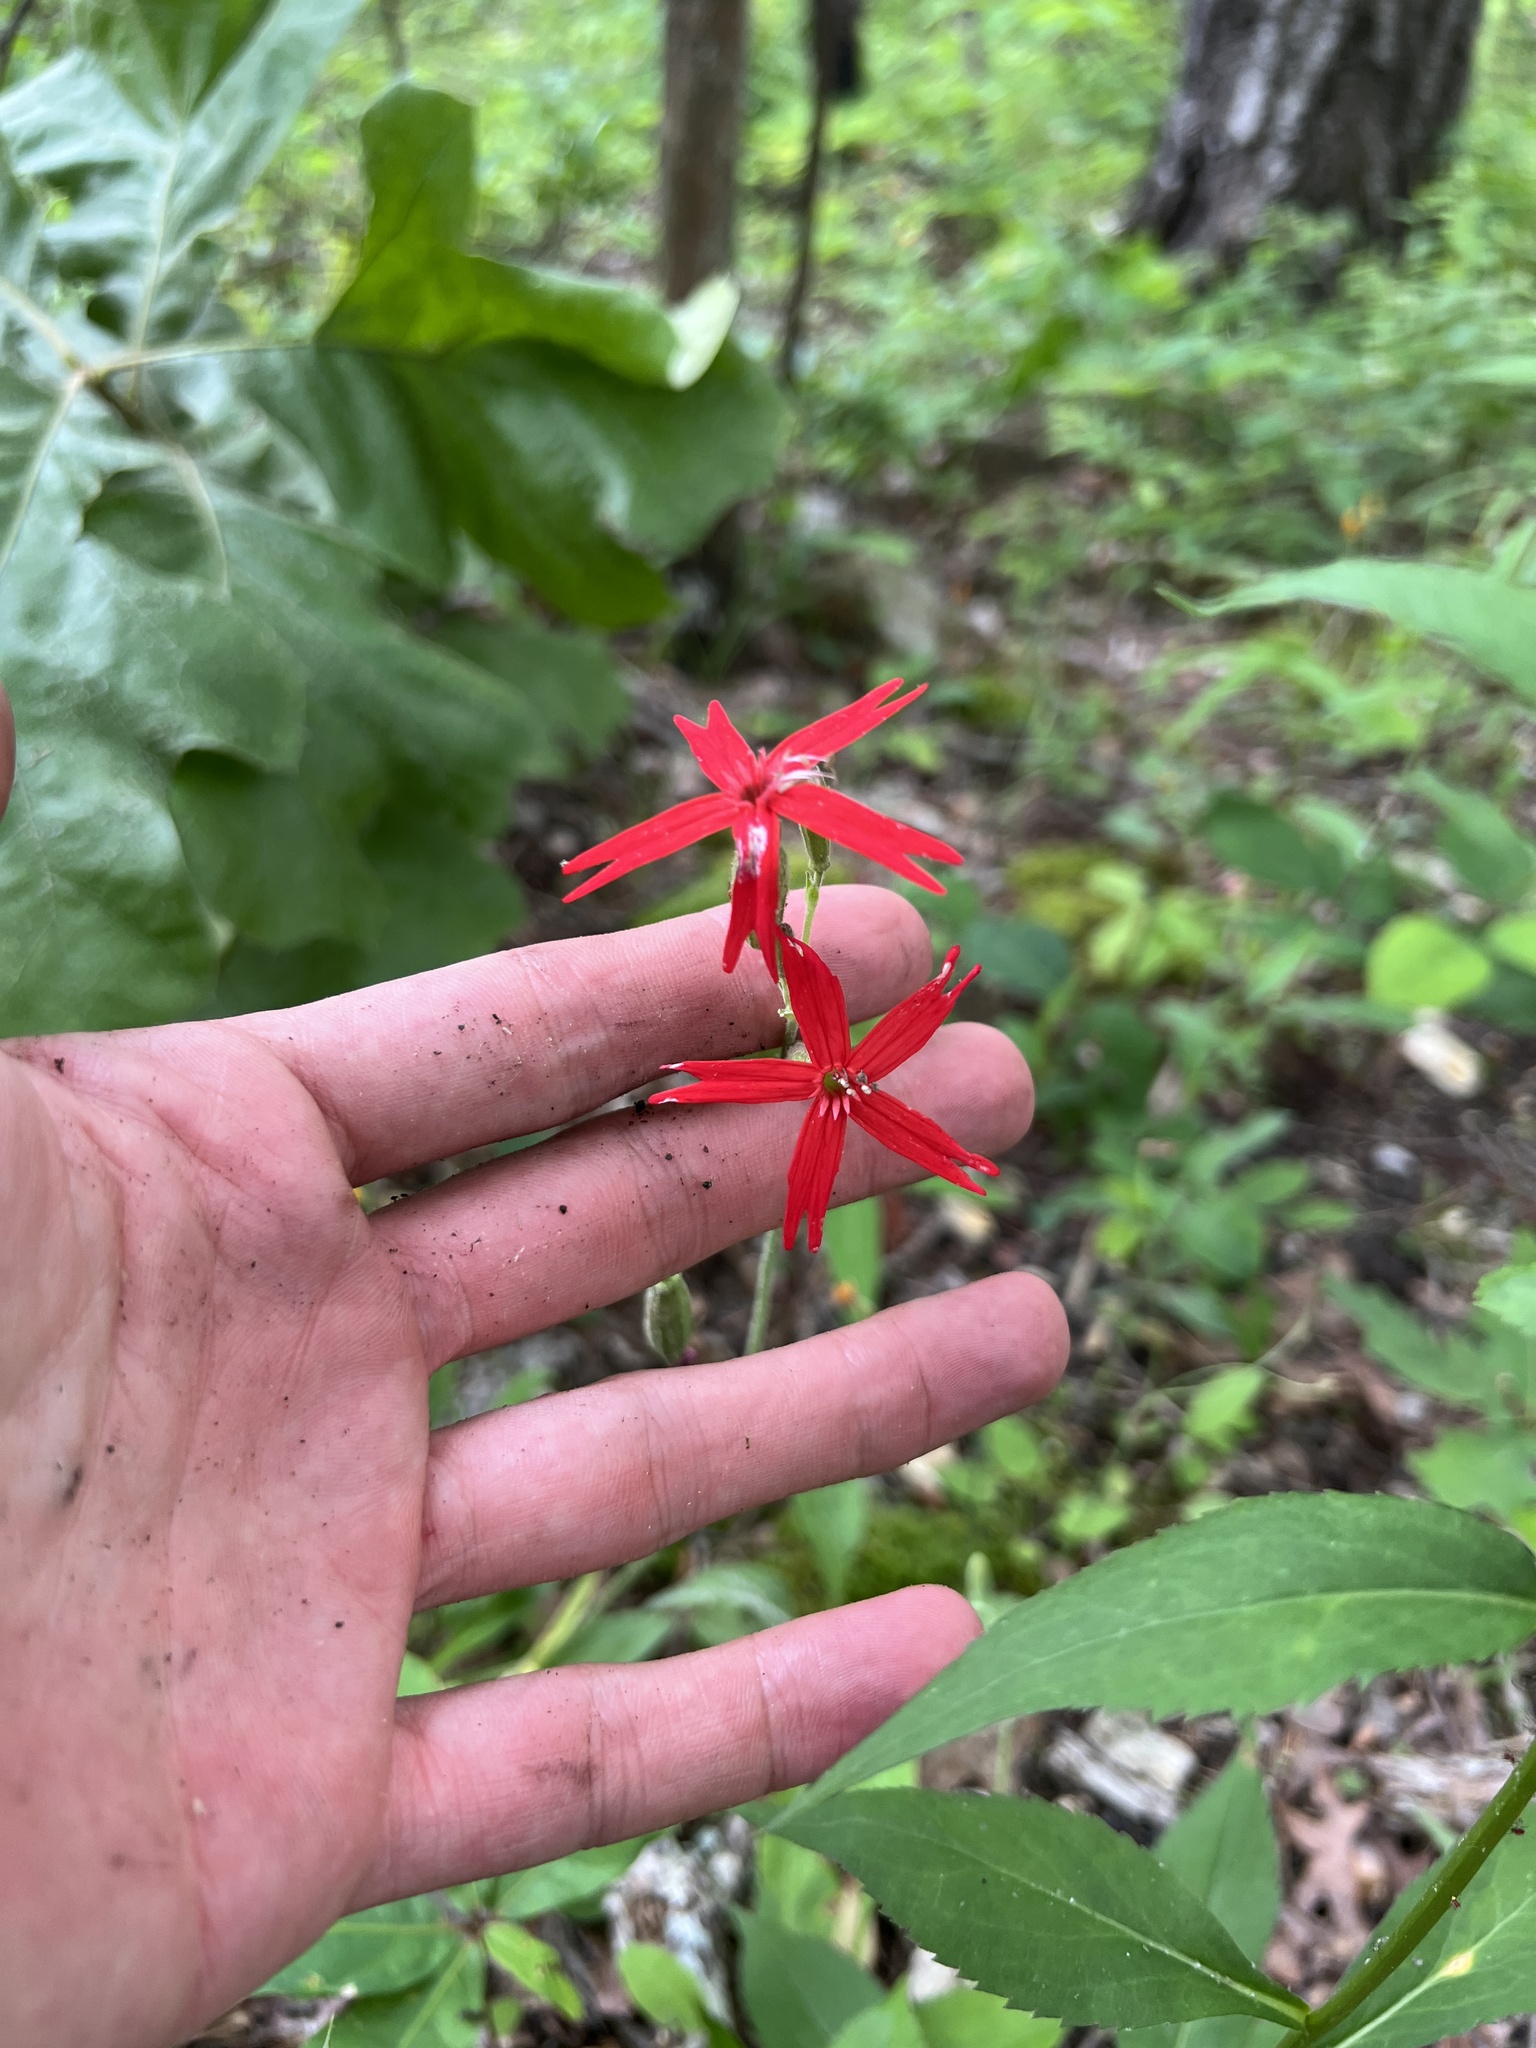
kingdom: Plantae
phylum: Tracheophyta
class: Magnoliopsida
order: Caryophyllales
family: Caryophyllaceae
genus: Silene
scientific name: Silene virginica
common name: Fire-pink
